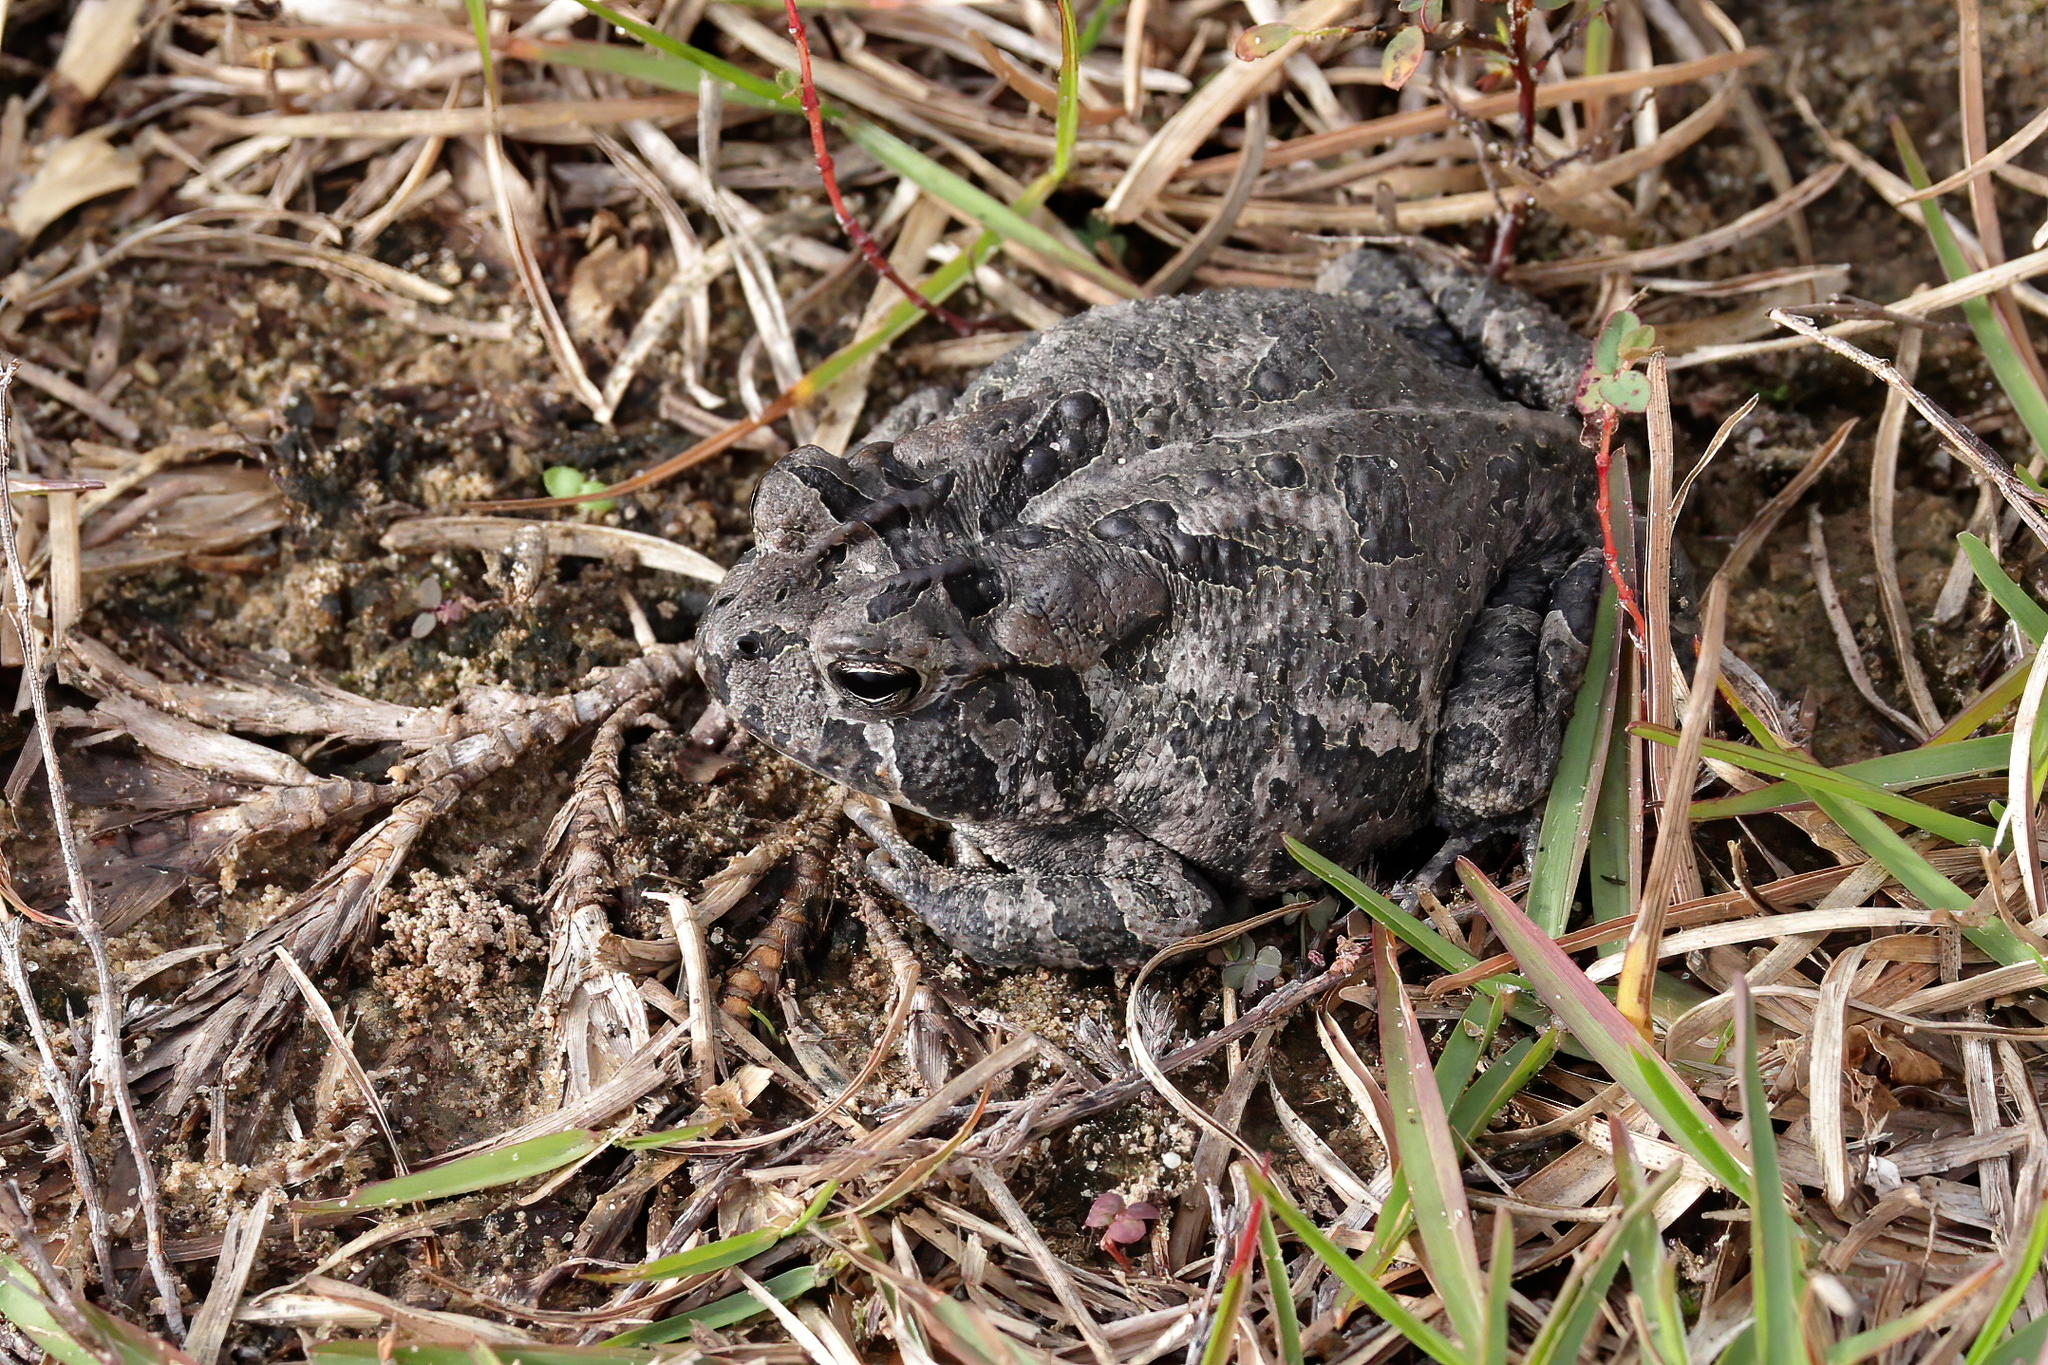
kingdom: Animalia
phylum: Chordata
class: Amphibia
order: Anura
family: Bufonidae
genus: Anaxyrus
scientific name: Anaxyrus terrestris
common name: Southern toad
